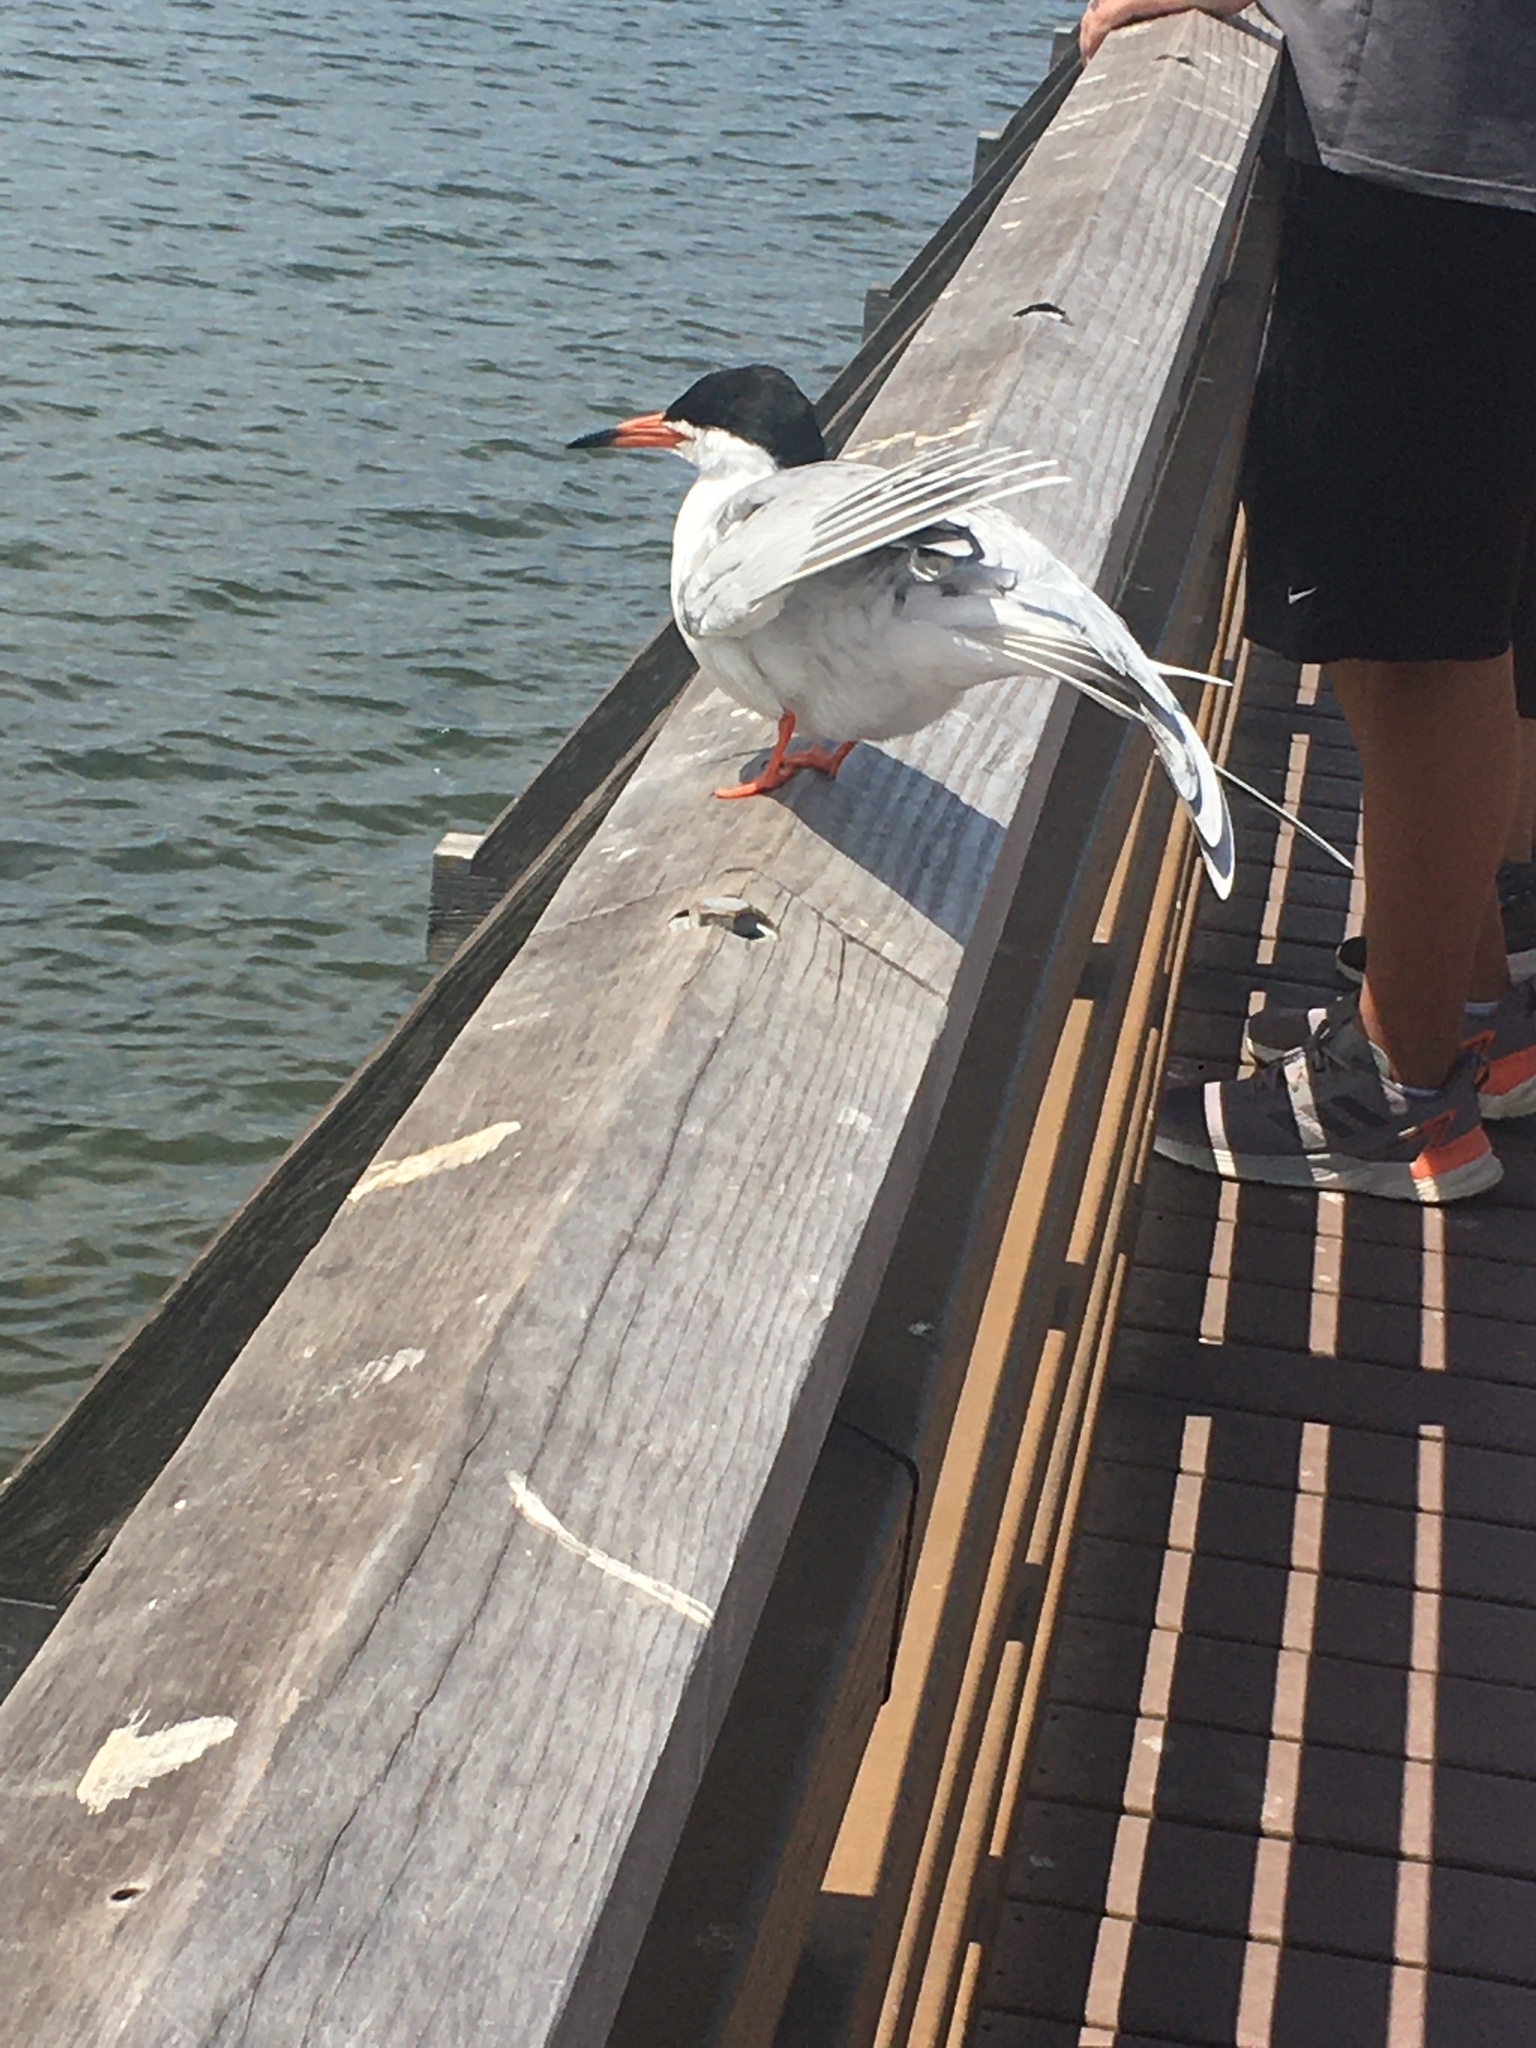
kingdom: Animalia
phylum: Chordata
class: Aves
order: Charadriiformes
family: Laridae
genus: Sterna
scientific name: Sterna forsteri
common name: Forster's tern
